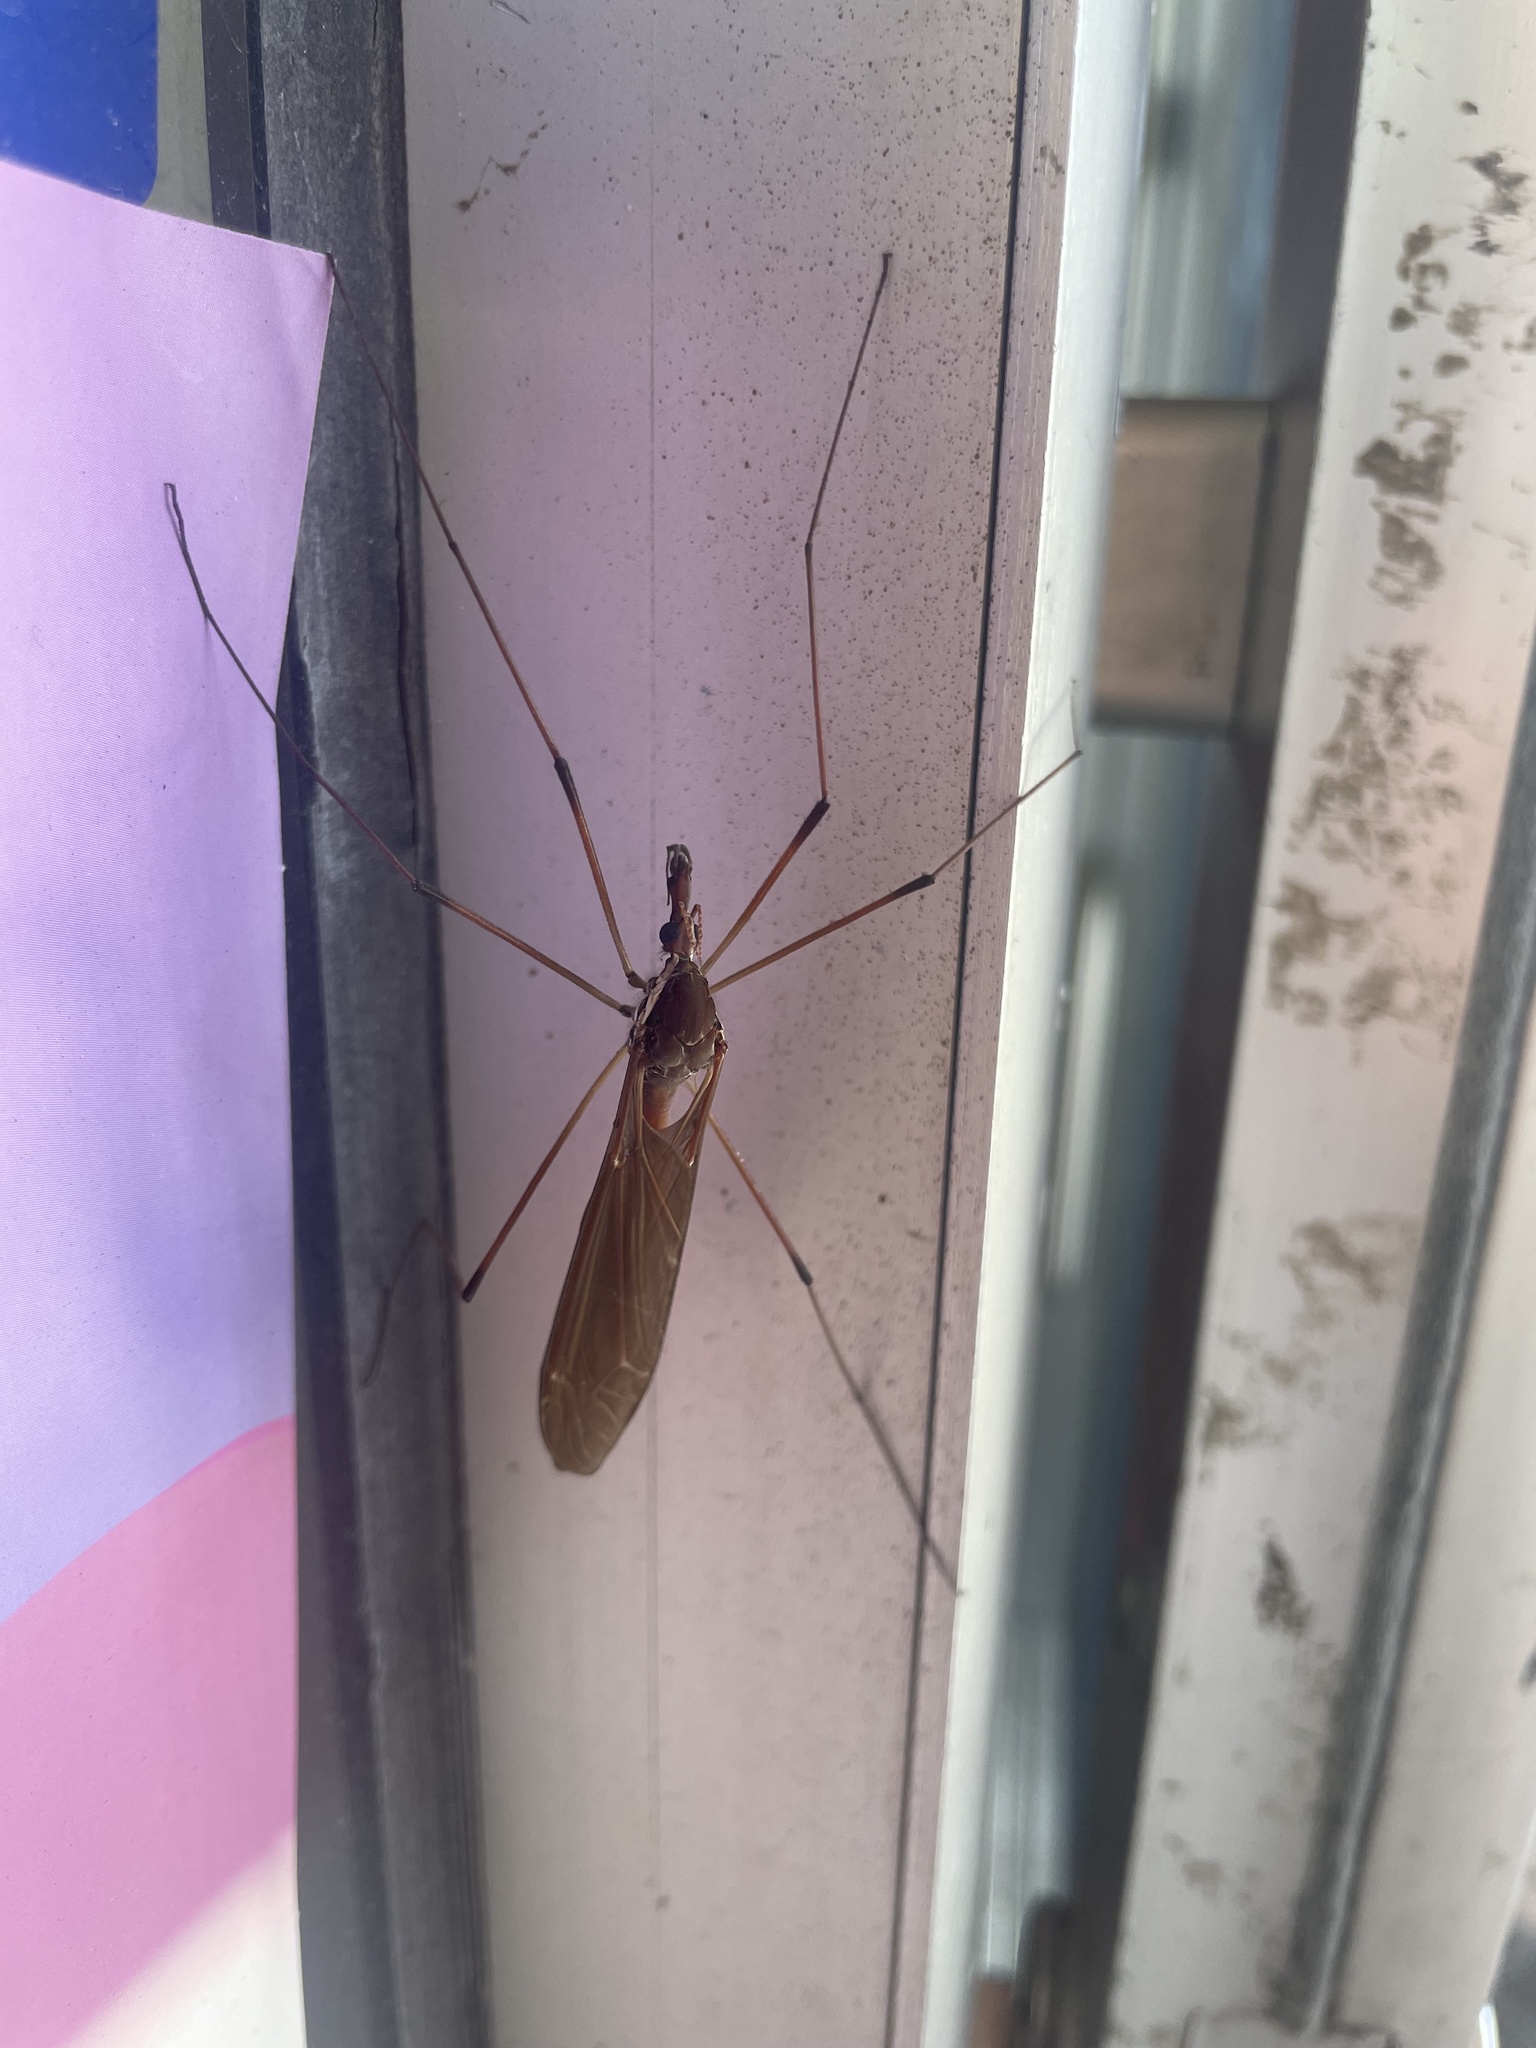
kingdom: Animalia
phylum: Arthropoda
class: Insecta
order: Diptera
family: Tipulidae
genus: Holorusia
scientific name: Holorusia hespera
